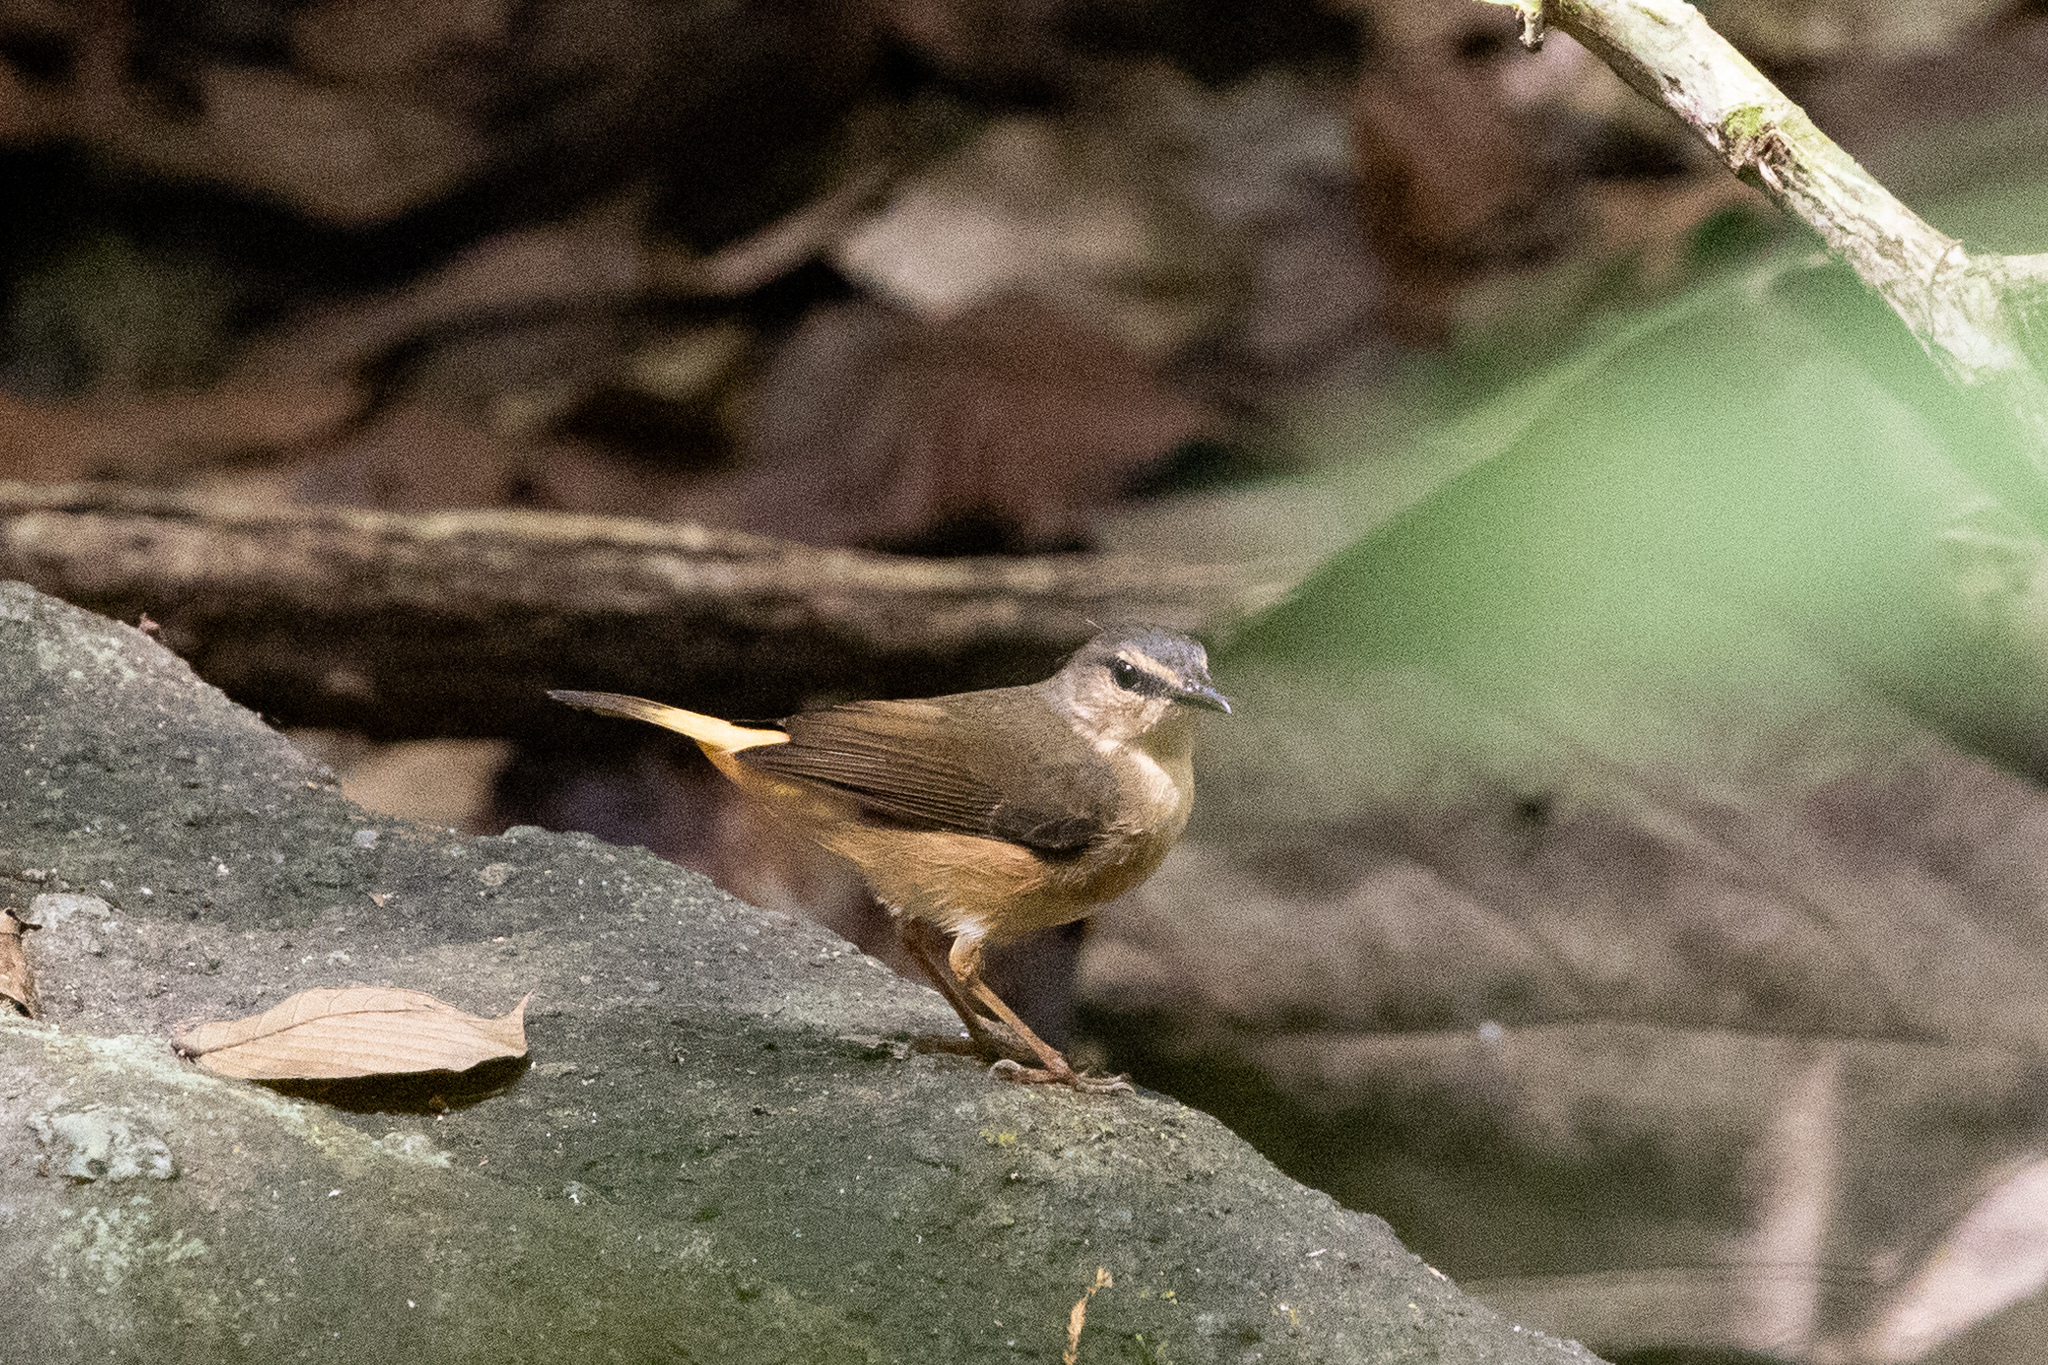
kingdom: Animalia
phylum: Chordata
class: Aves
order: Passeriformes
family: Parulidae
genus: Myiothlypis
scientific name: Myiothlypis fulvicauda
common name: Buff-rumped warbler
